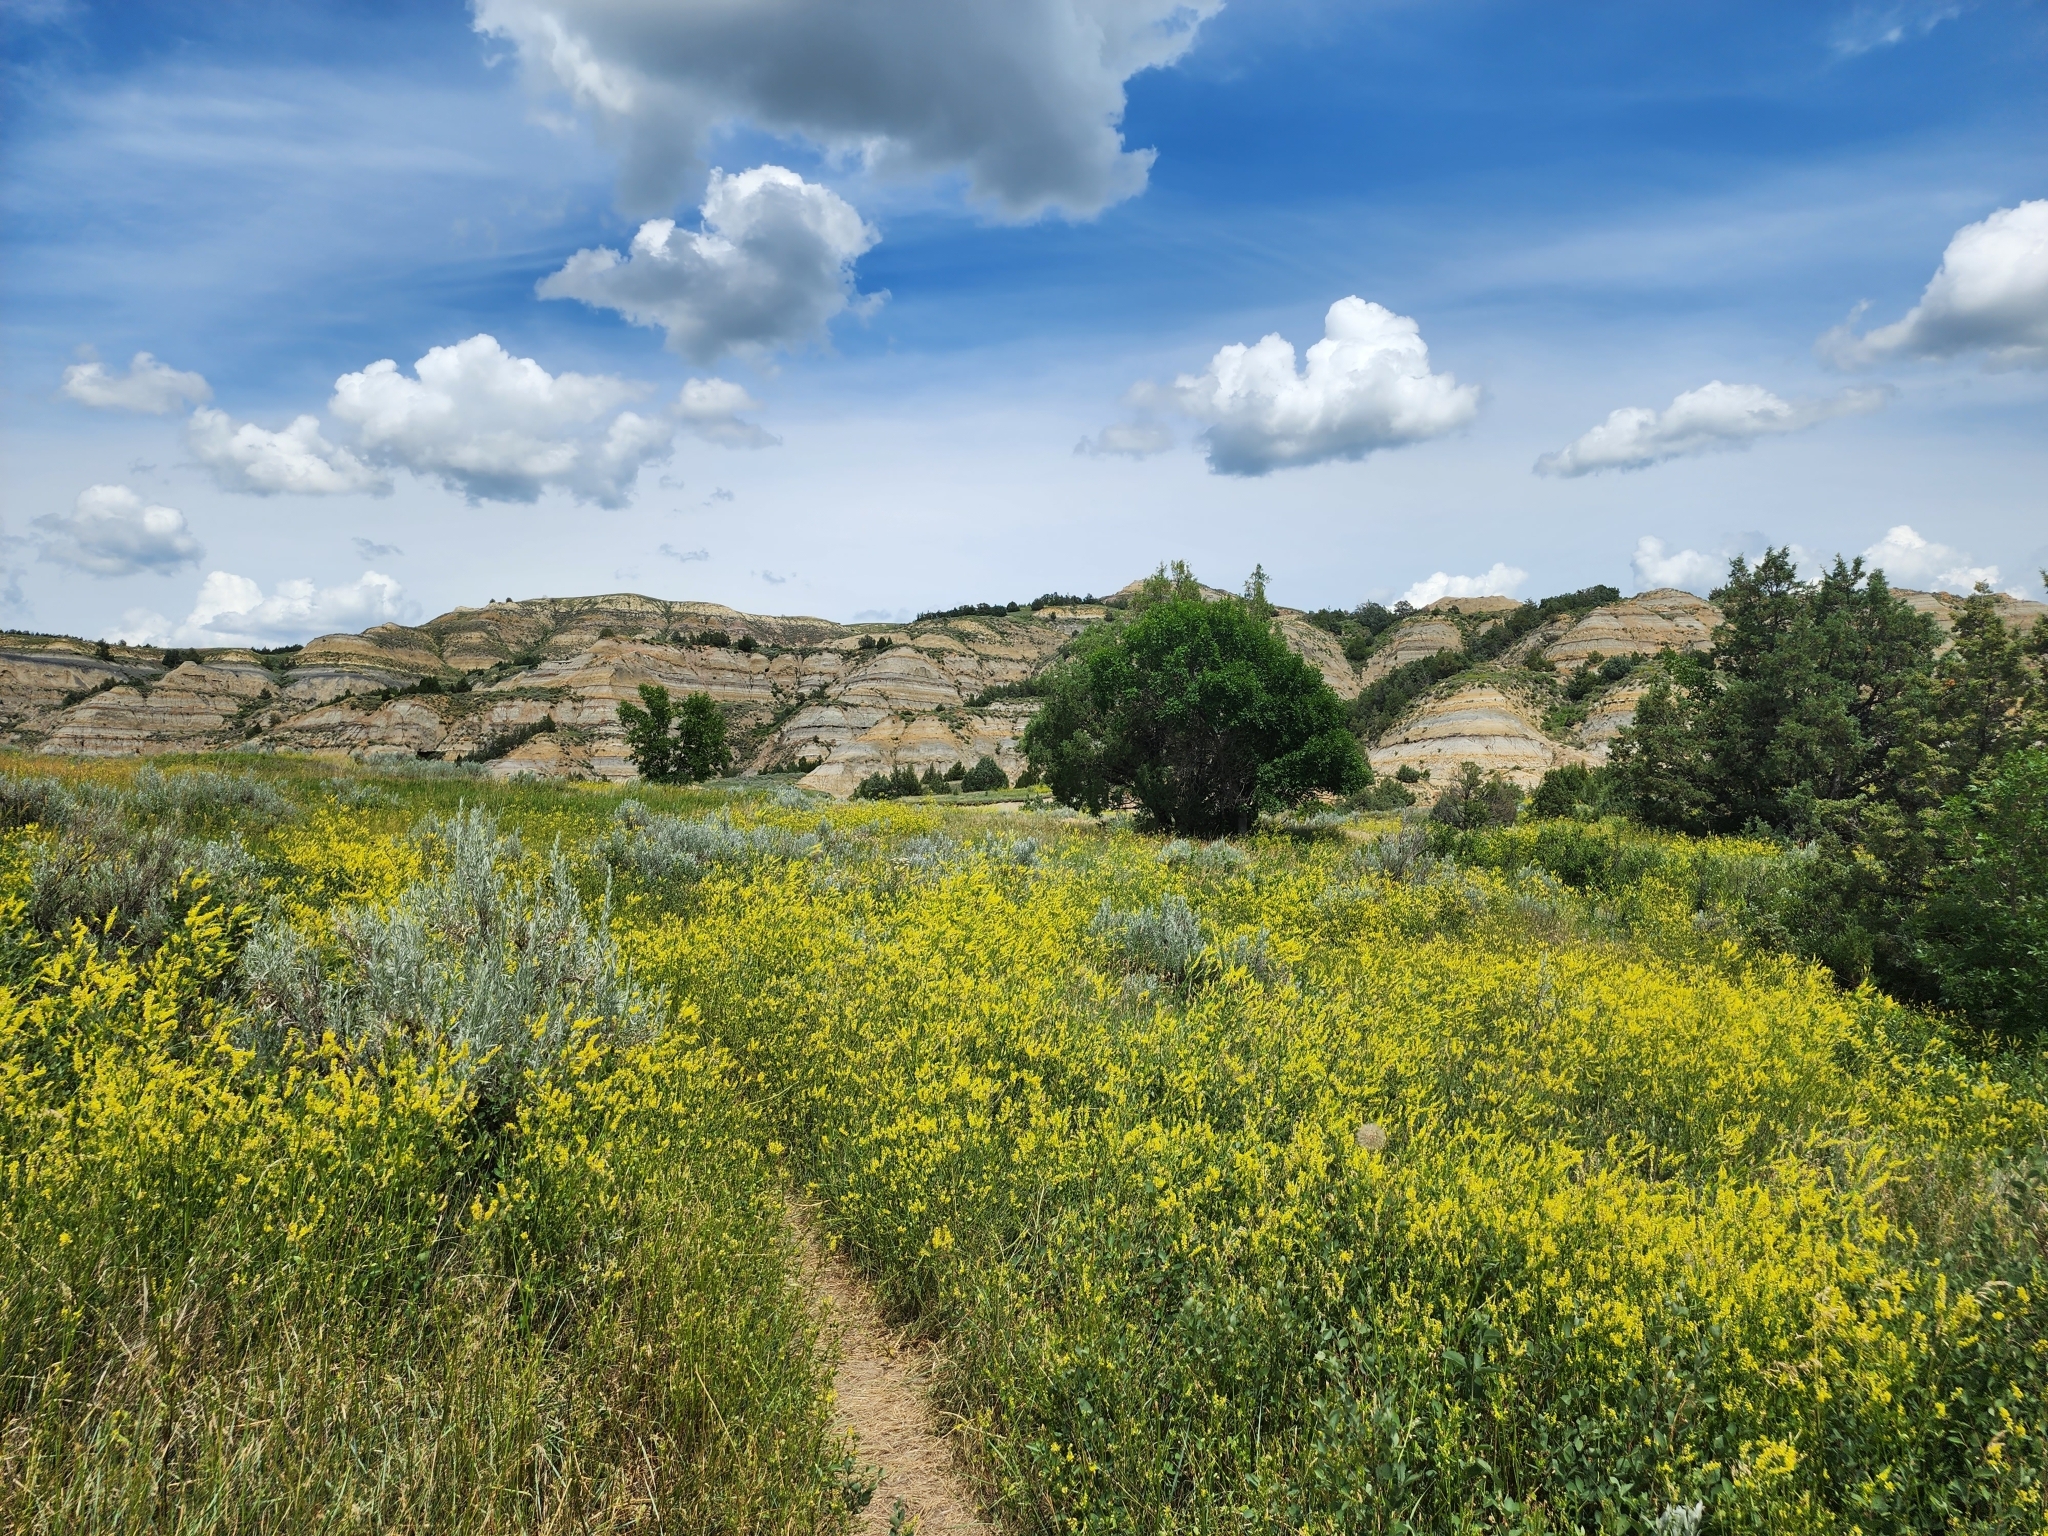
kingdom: Plantae
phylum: Tracheophyta
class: Magnoliopsida
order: Fabales
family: Fabaceae
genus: Melilotus
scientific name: Melilotus officinalis
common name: Sweetclover
